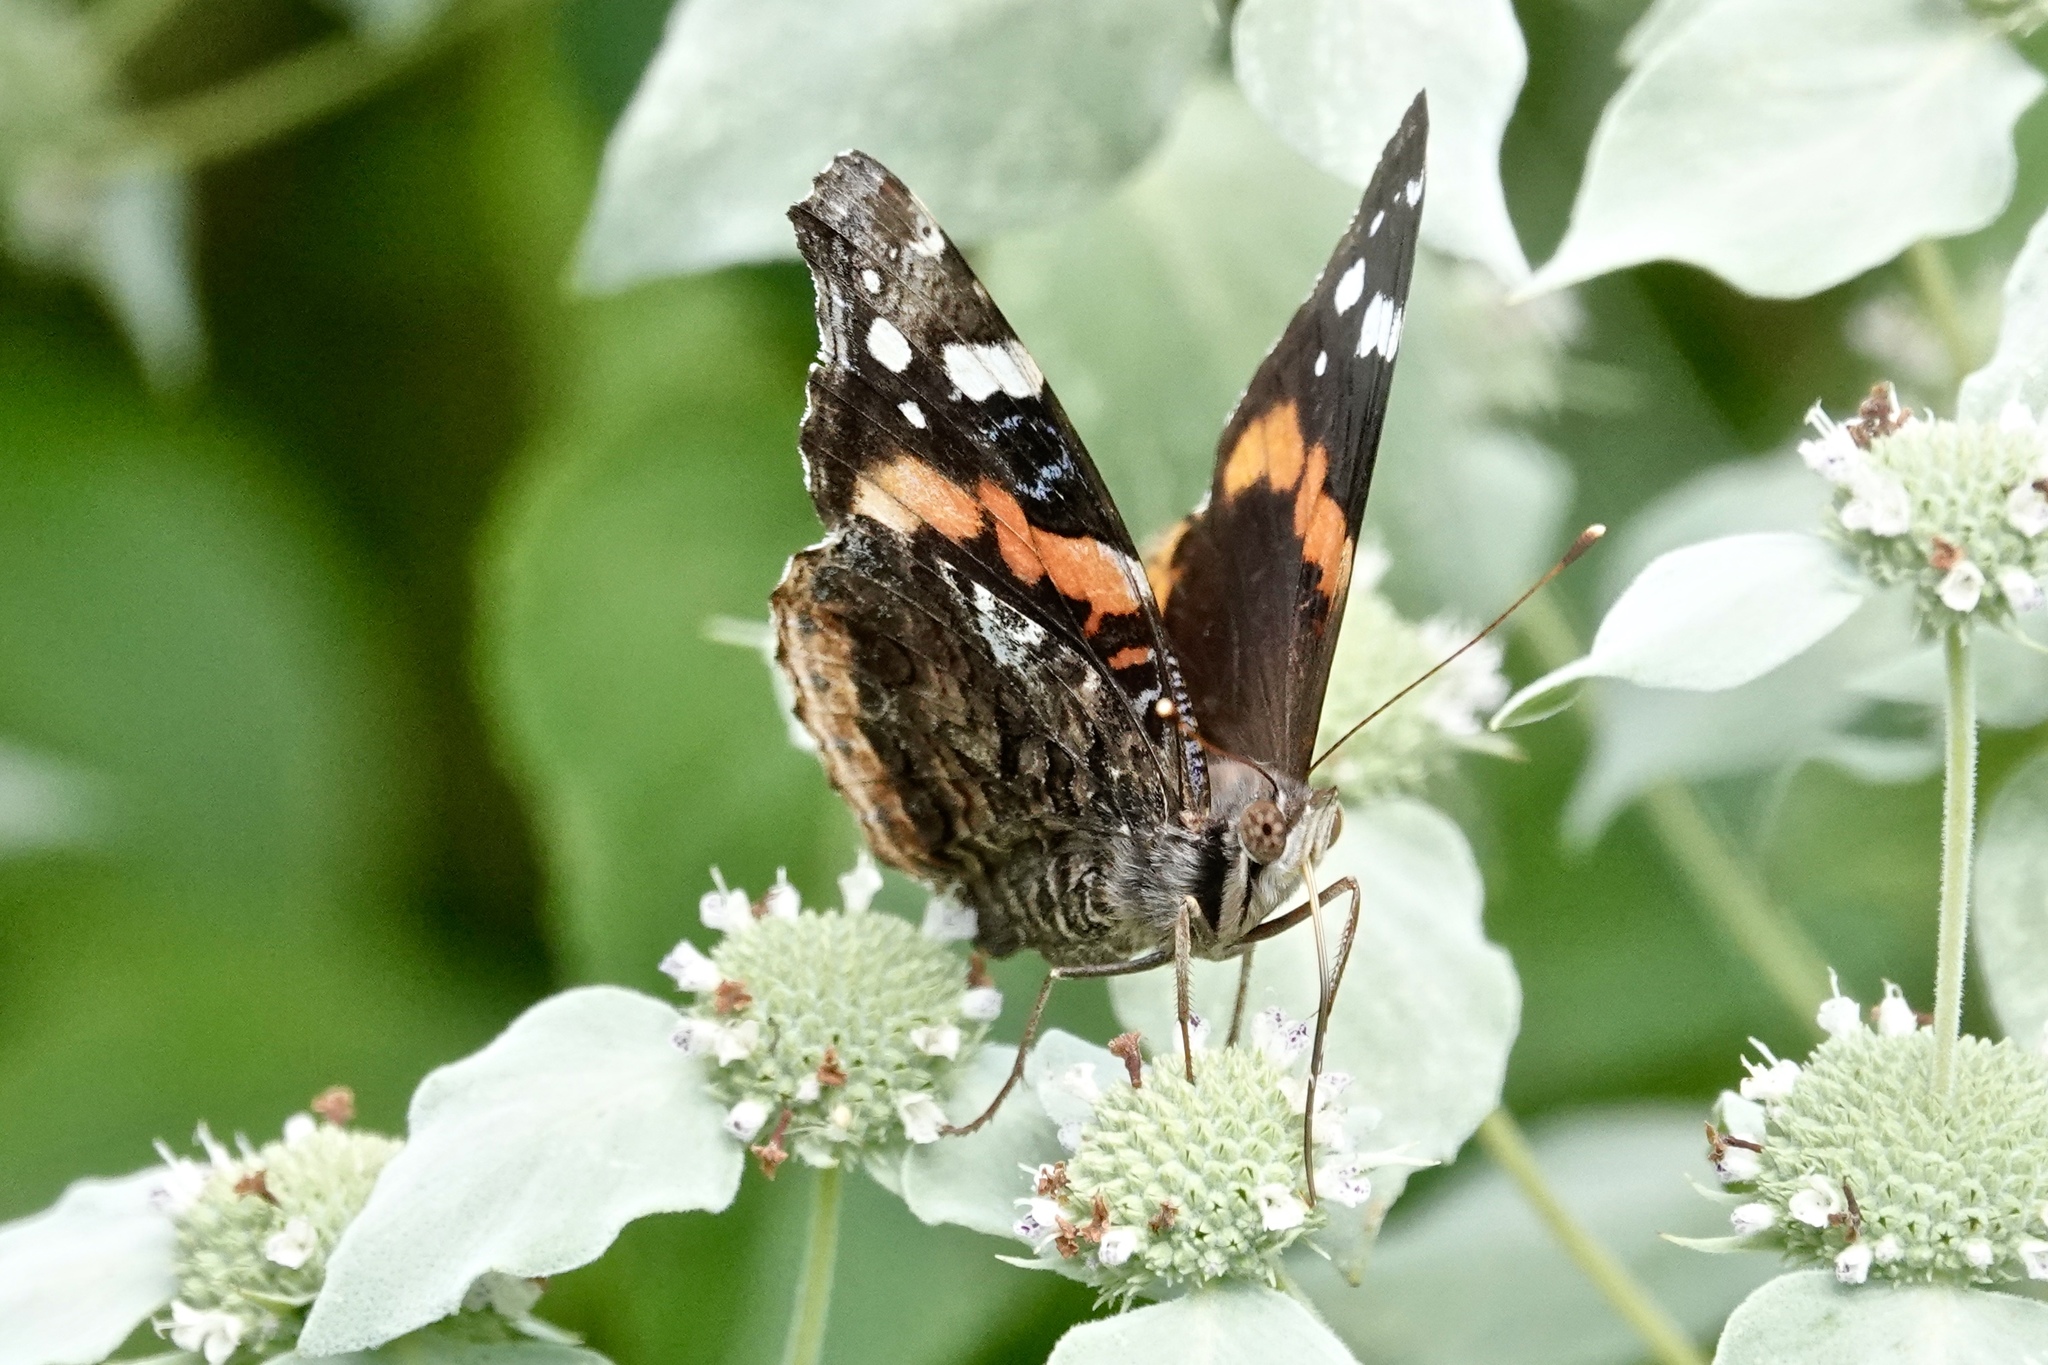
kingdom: Animalia
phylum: Arthropoda
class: Insecta
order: Lepidoptera
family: Nymphalidae
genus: Vanessa
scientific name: Vanessa atalanta
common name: Red admiral
